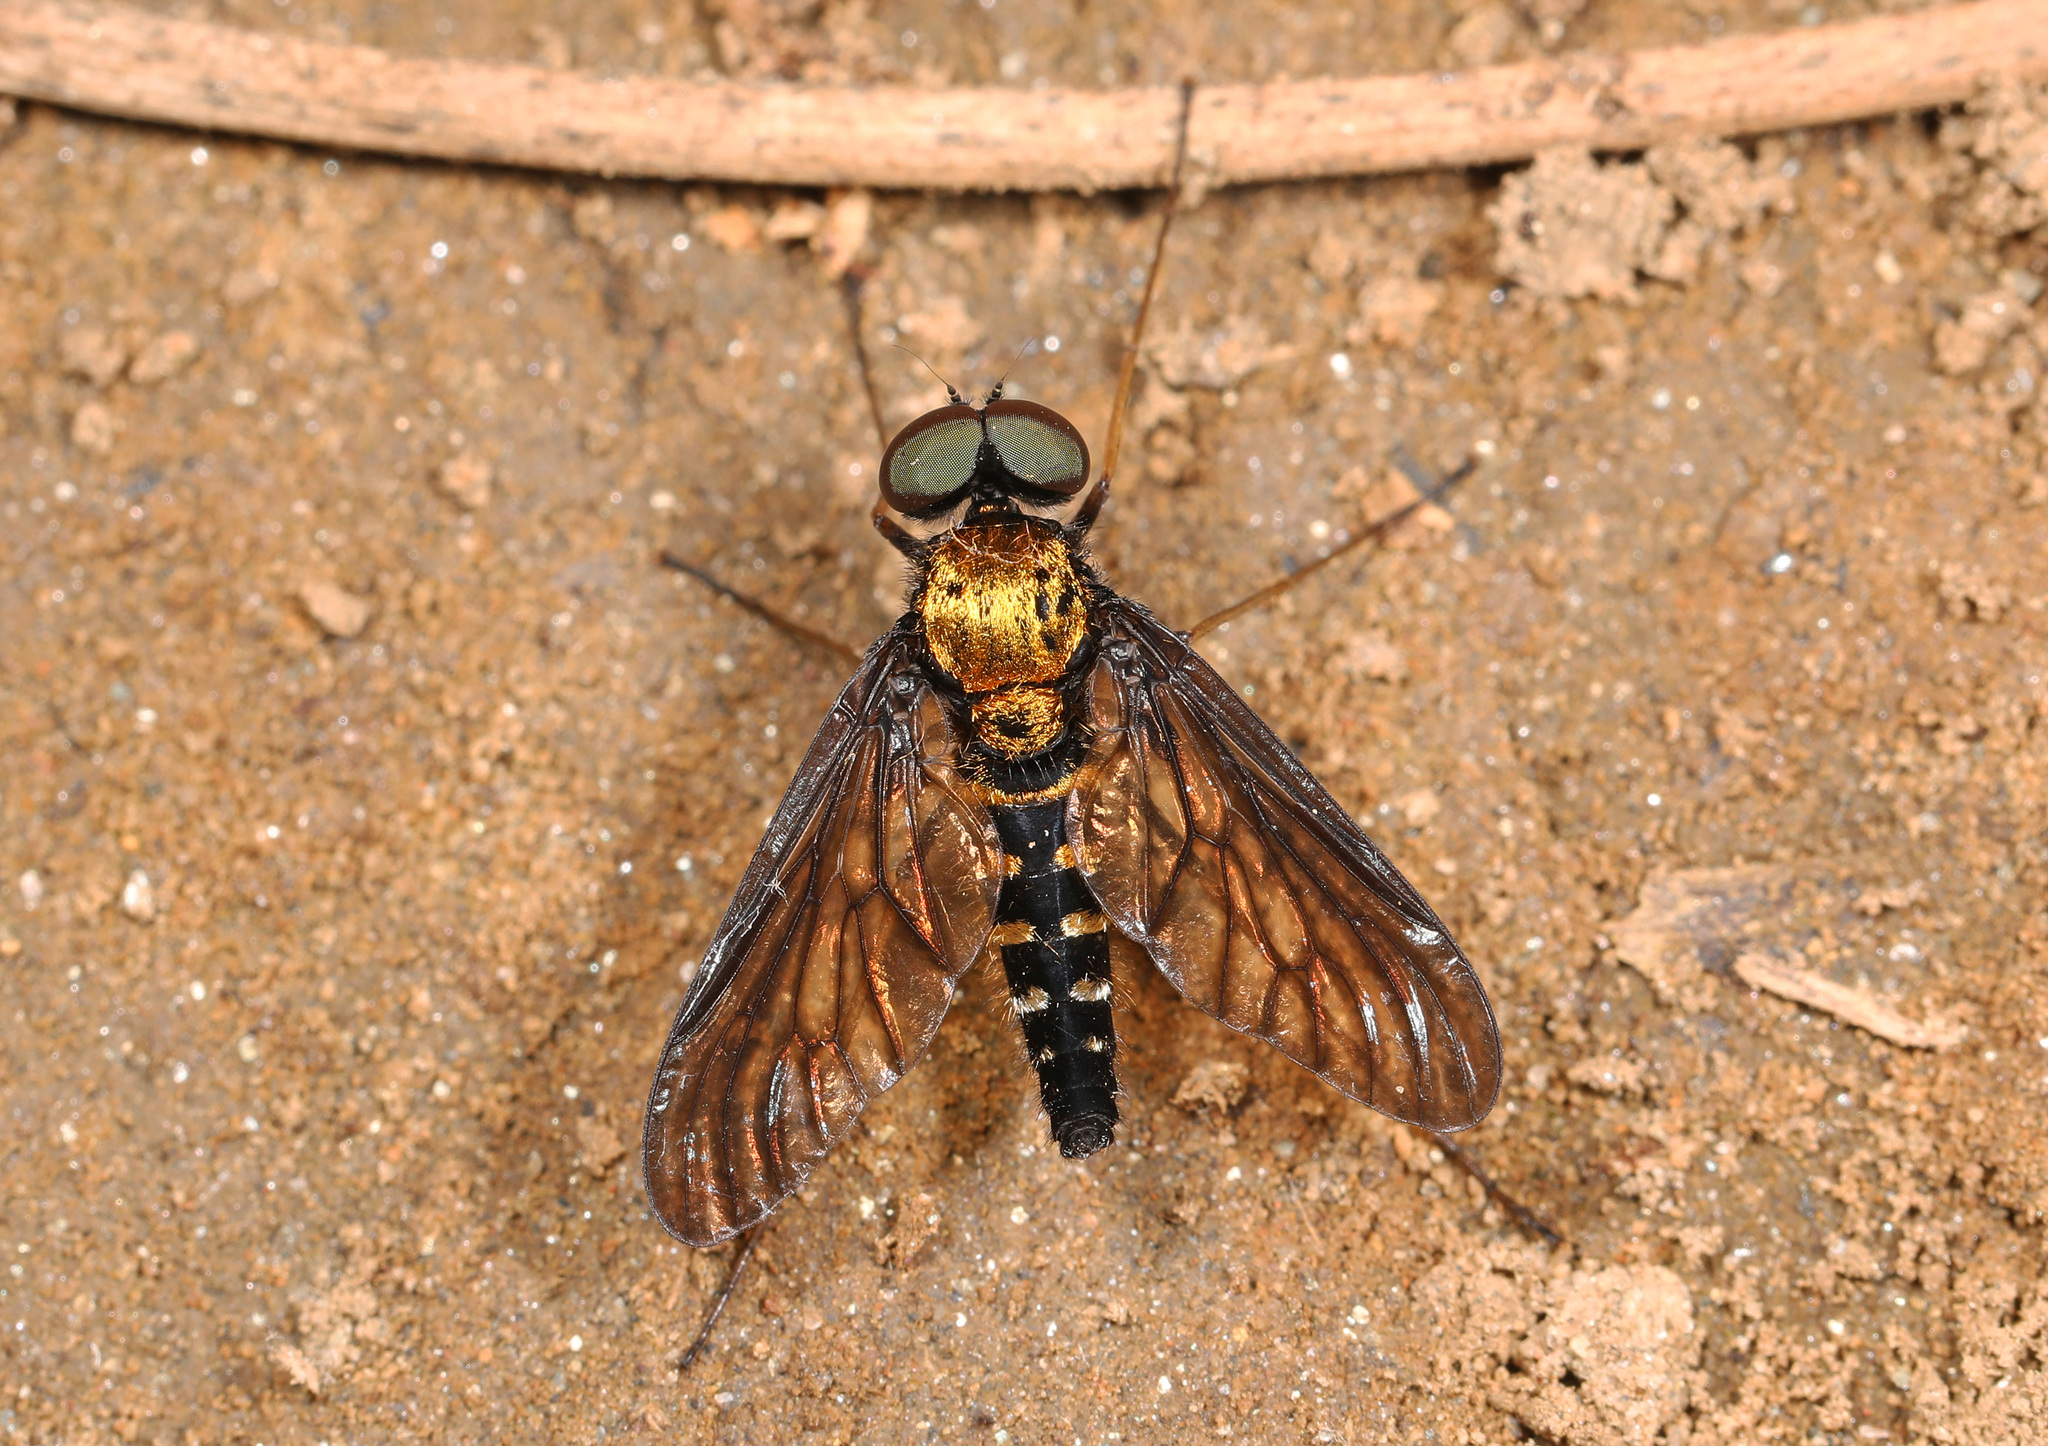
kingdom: Animalia
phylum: Arthropoda
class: Insecta
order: Diptera
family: Rhagionidae
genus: Chrysopilus
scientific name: Chrysopilus thoracicus
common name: Golden-backed snipe fly
